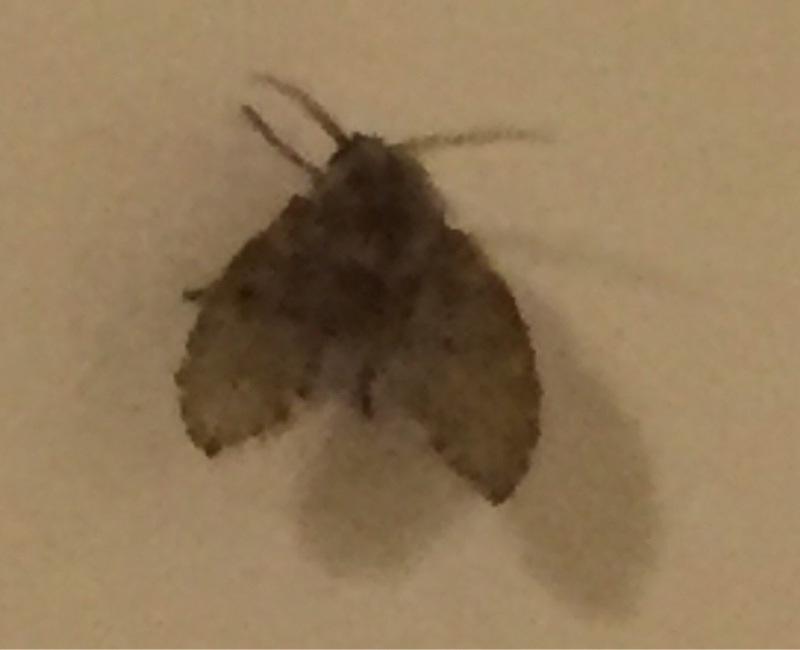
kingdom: Animalia
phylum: Arthropoda
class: Insecta
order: Diptera
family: Psychodidae
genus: Clogmia
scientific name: Clogmia albipunctatus
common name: White-spotted moth fly
